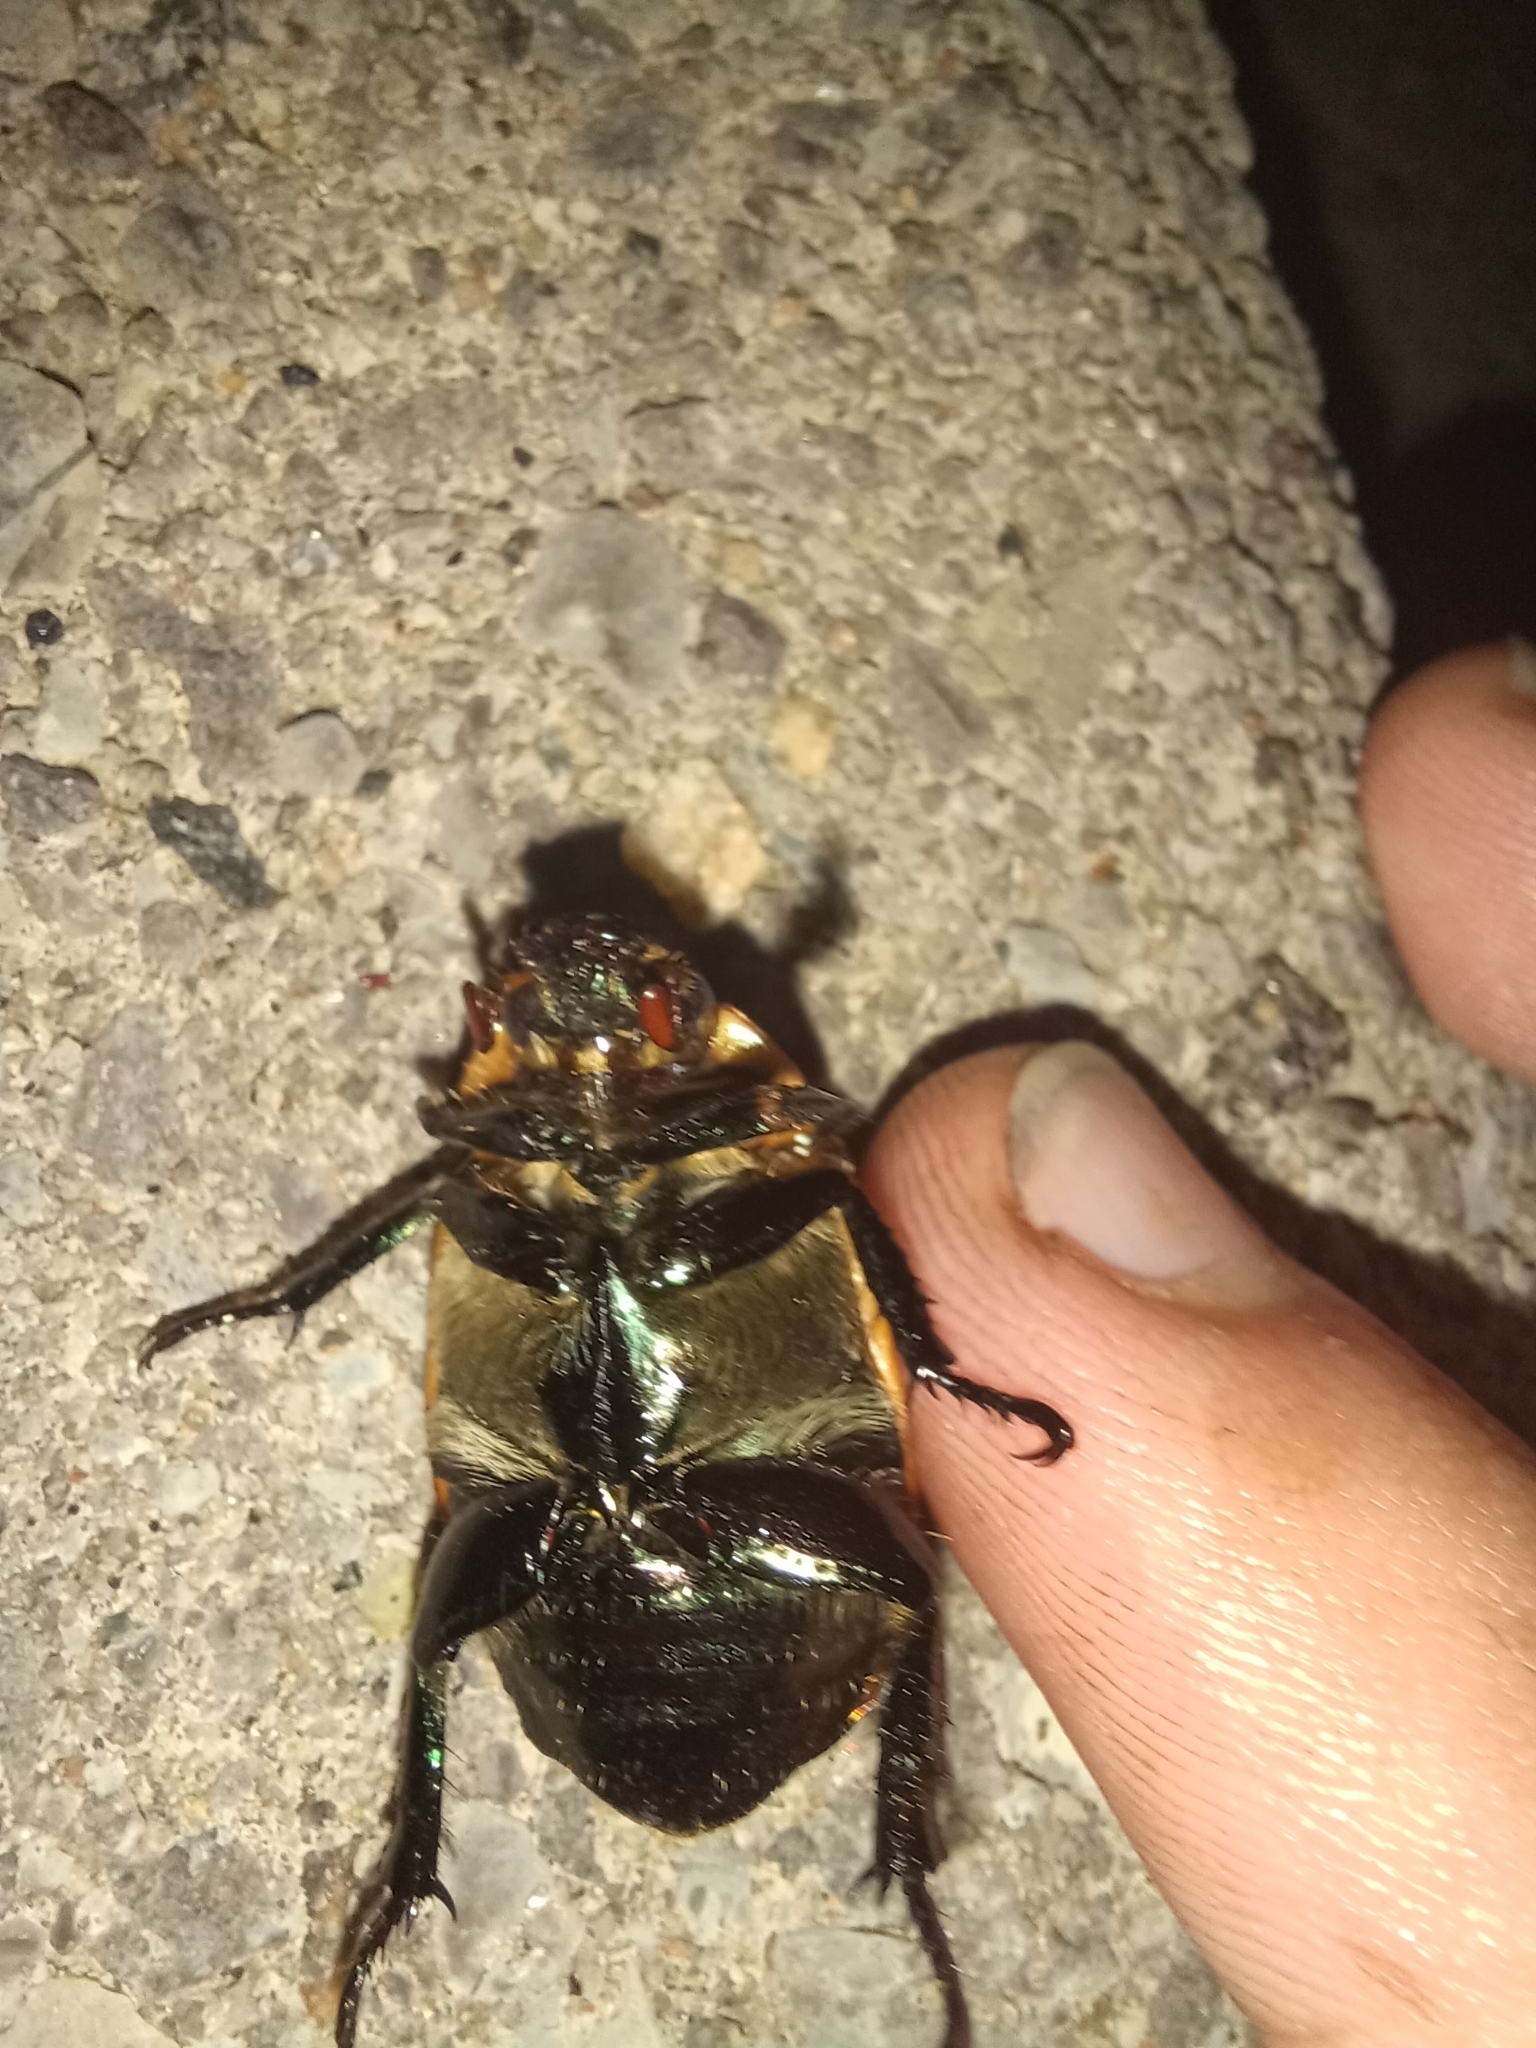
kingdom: Animalia
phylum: Arthropoda
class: Insecta
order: Coleoptera
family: Scarabaeidae
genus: Pelidnota
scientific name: Pelidnota punctata
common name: Grapevine beetle
